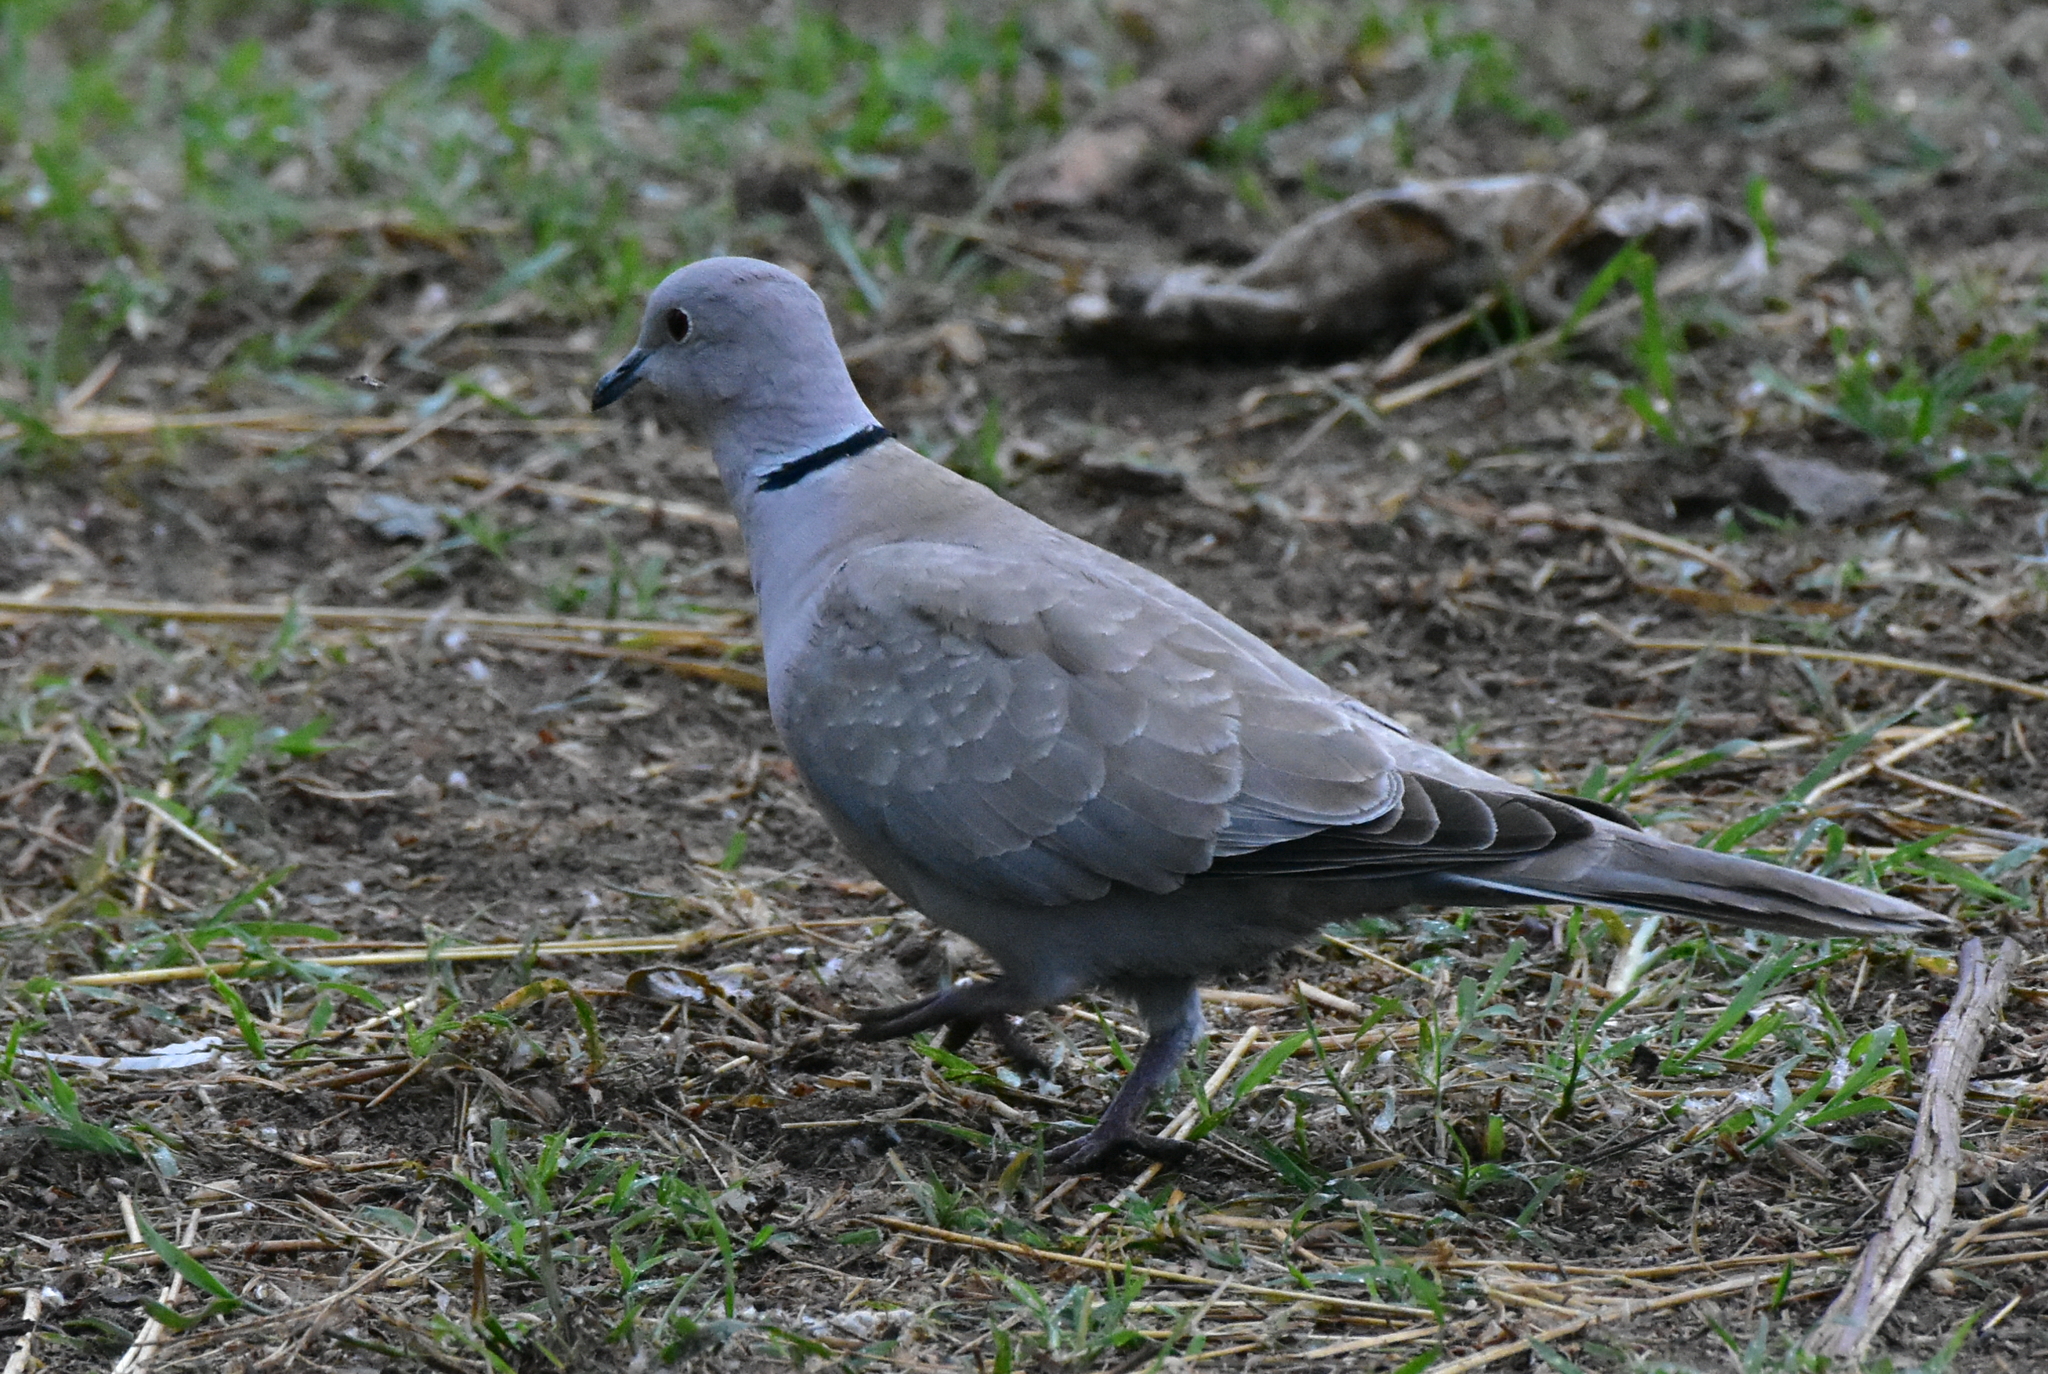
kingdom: Animalia
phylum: Chordata
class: Aves
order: Columbiformes
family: Columbidae
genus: Streptopelia
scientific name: Streptopelia decaocto
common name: Eurasian collared dove
